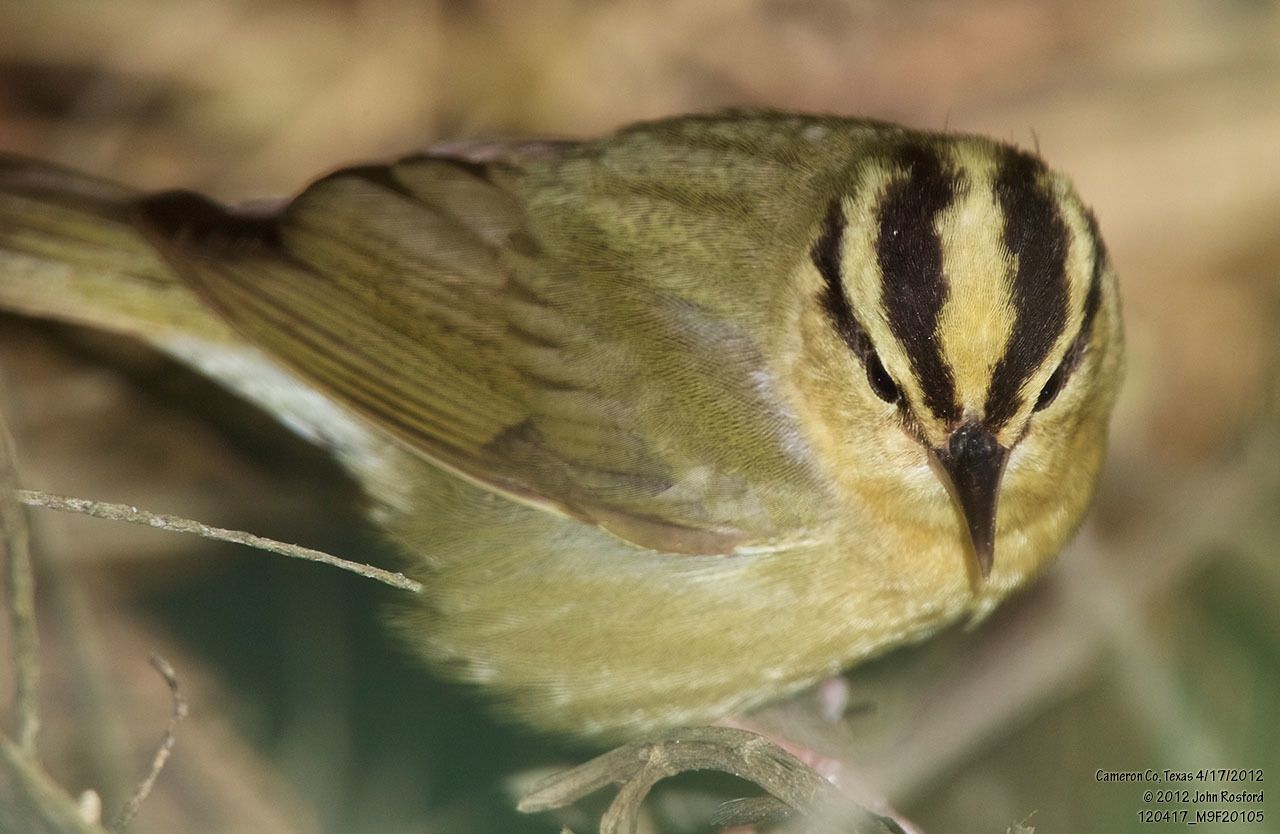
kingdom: Animalia
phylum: Chordata
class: Aves
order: Passeriformes
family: Parulidae
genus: Helmitheros
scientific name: Helmitheros vermivorum
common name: Worm-eating warbler
